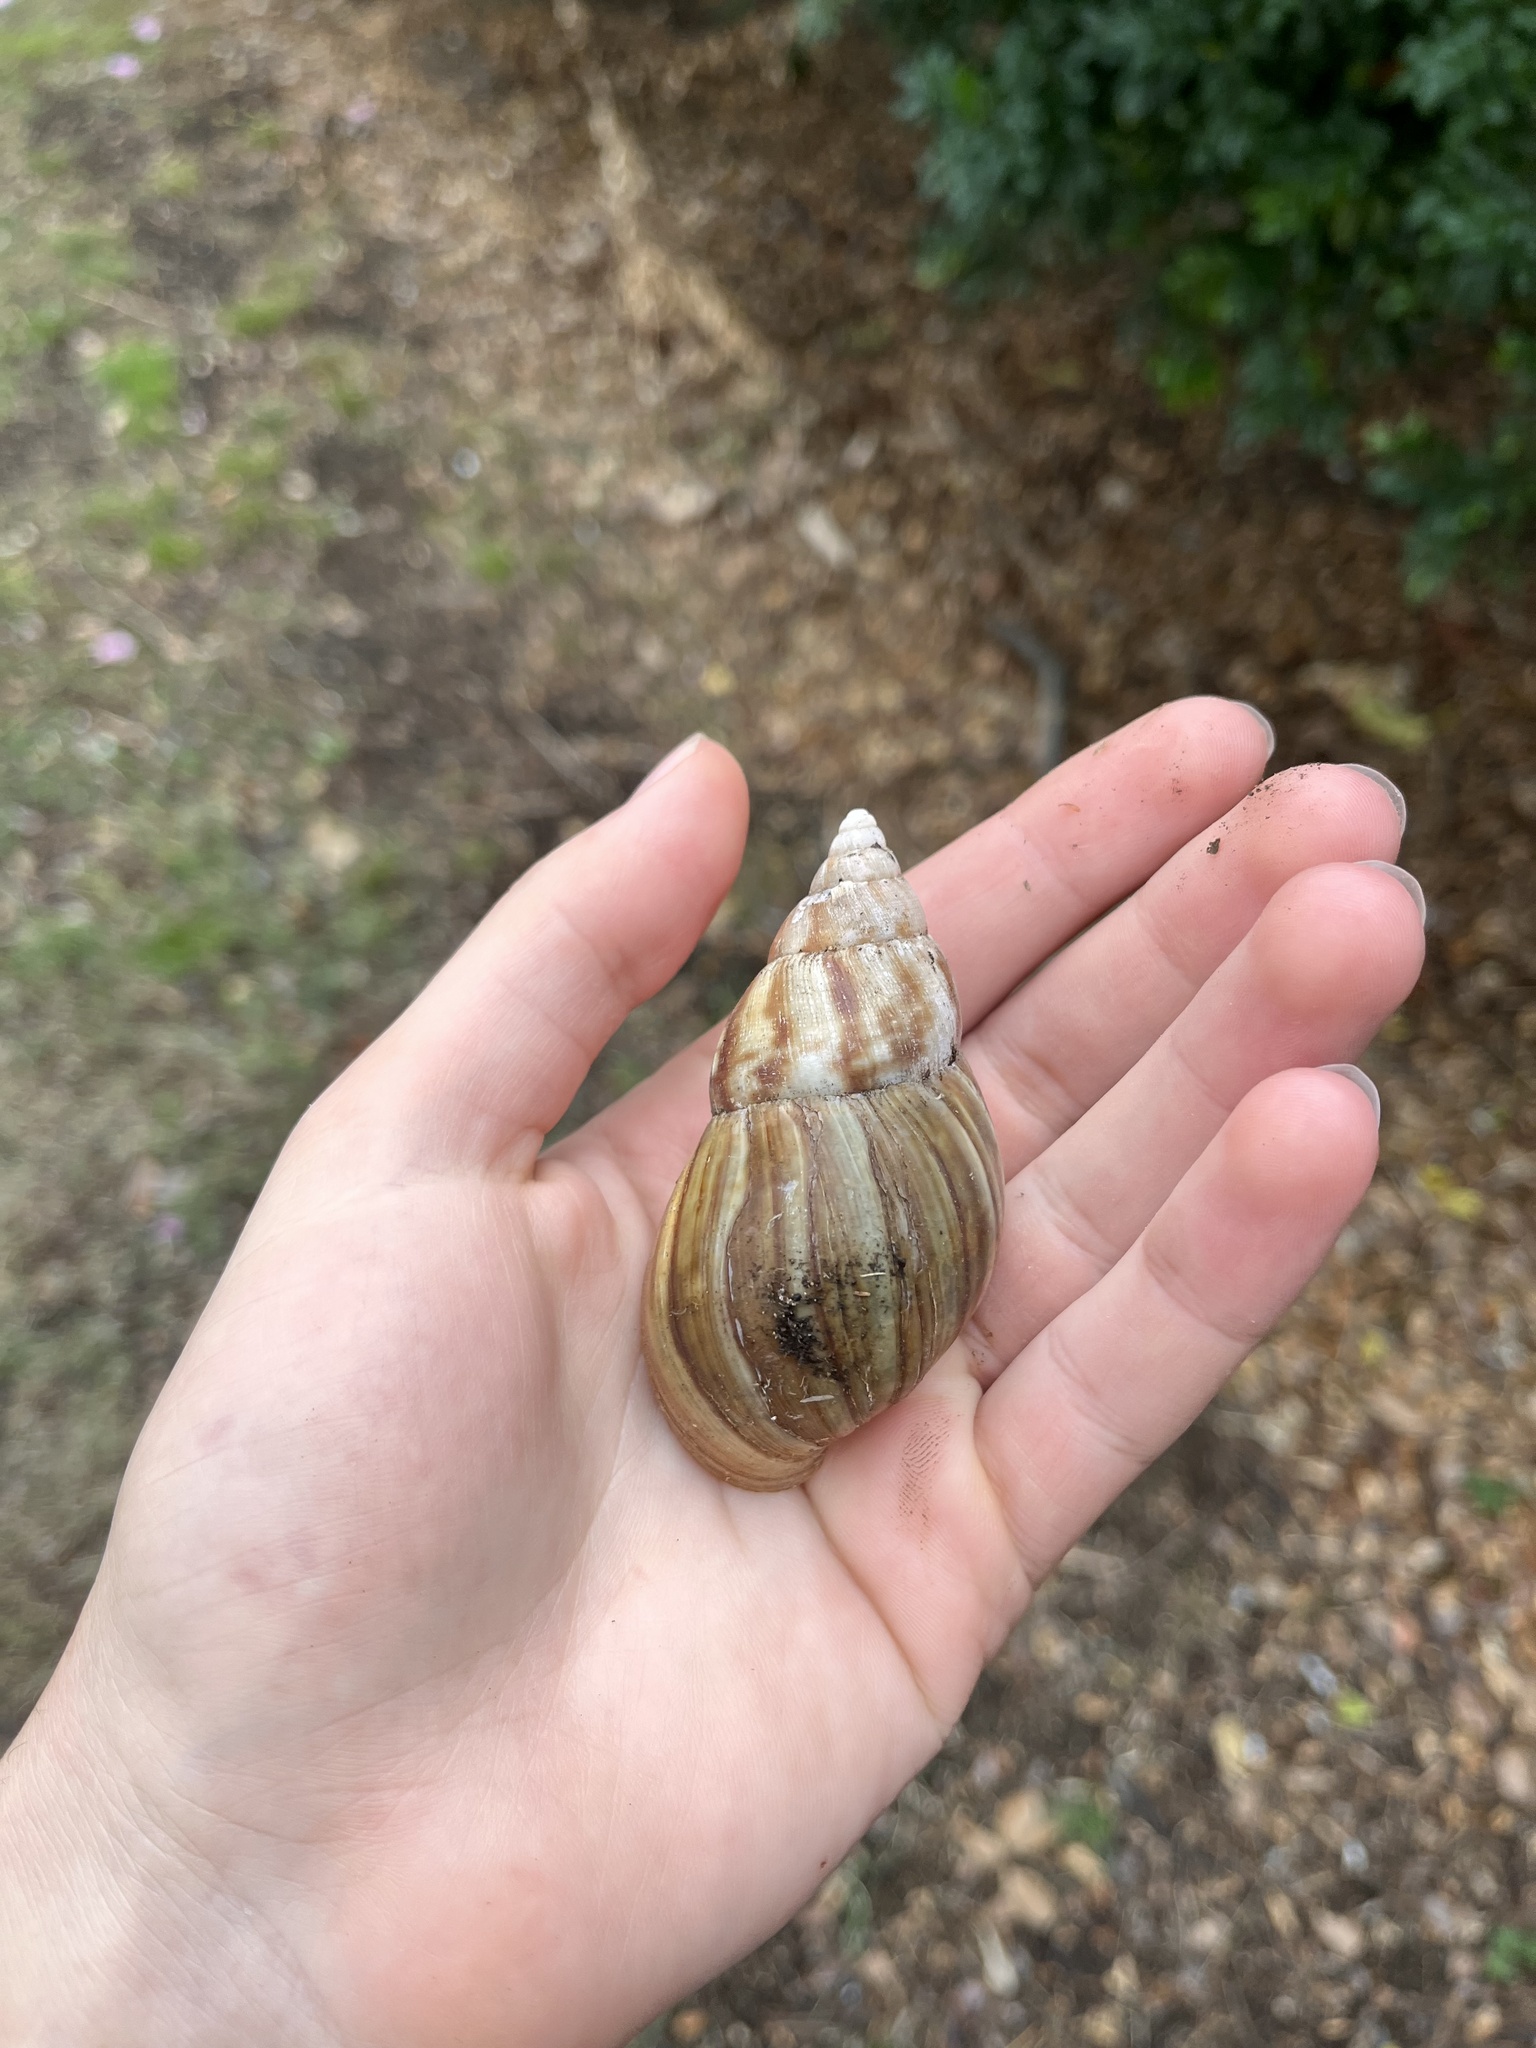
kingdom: Animalia
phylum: Mollusca
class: Gastropoda
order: Stylommatophora
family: Achatinidae
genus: Lissachatina
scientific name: Lissachatina fulica
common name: Giant african snail
